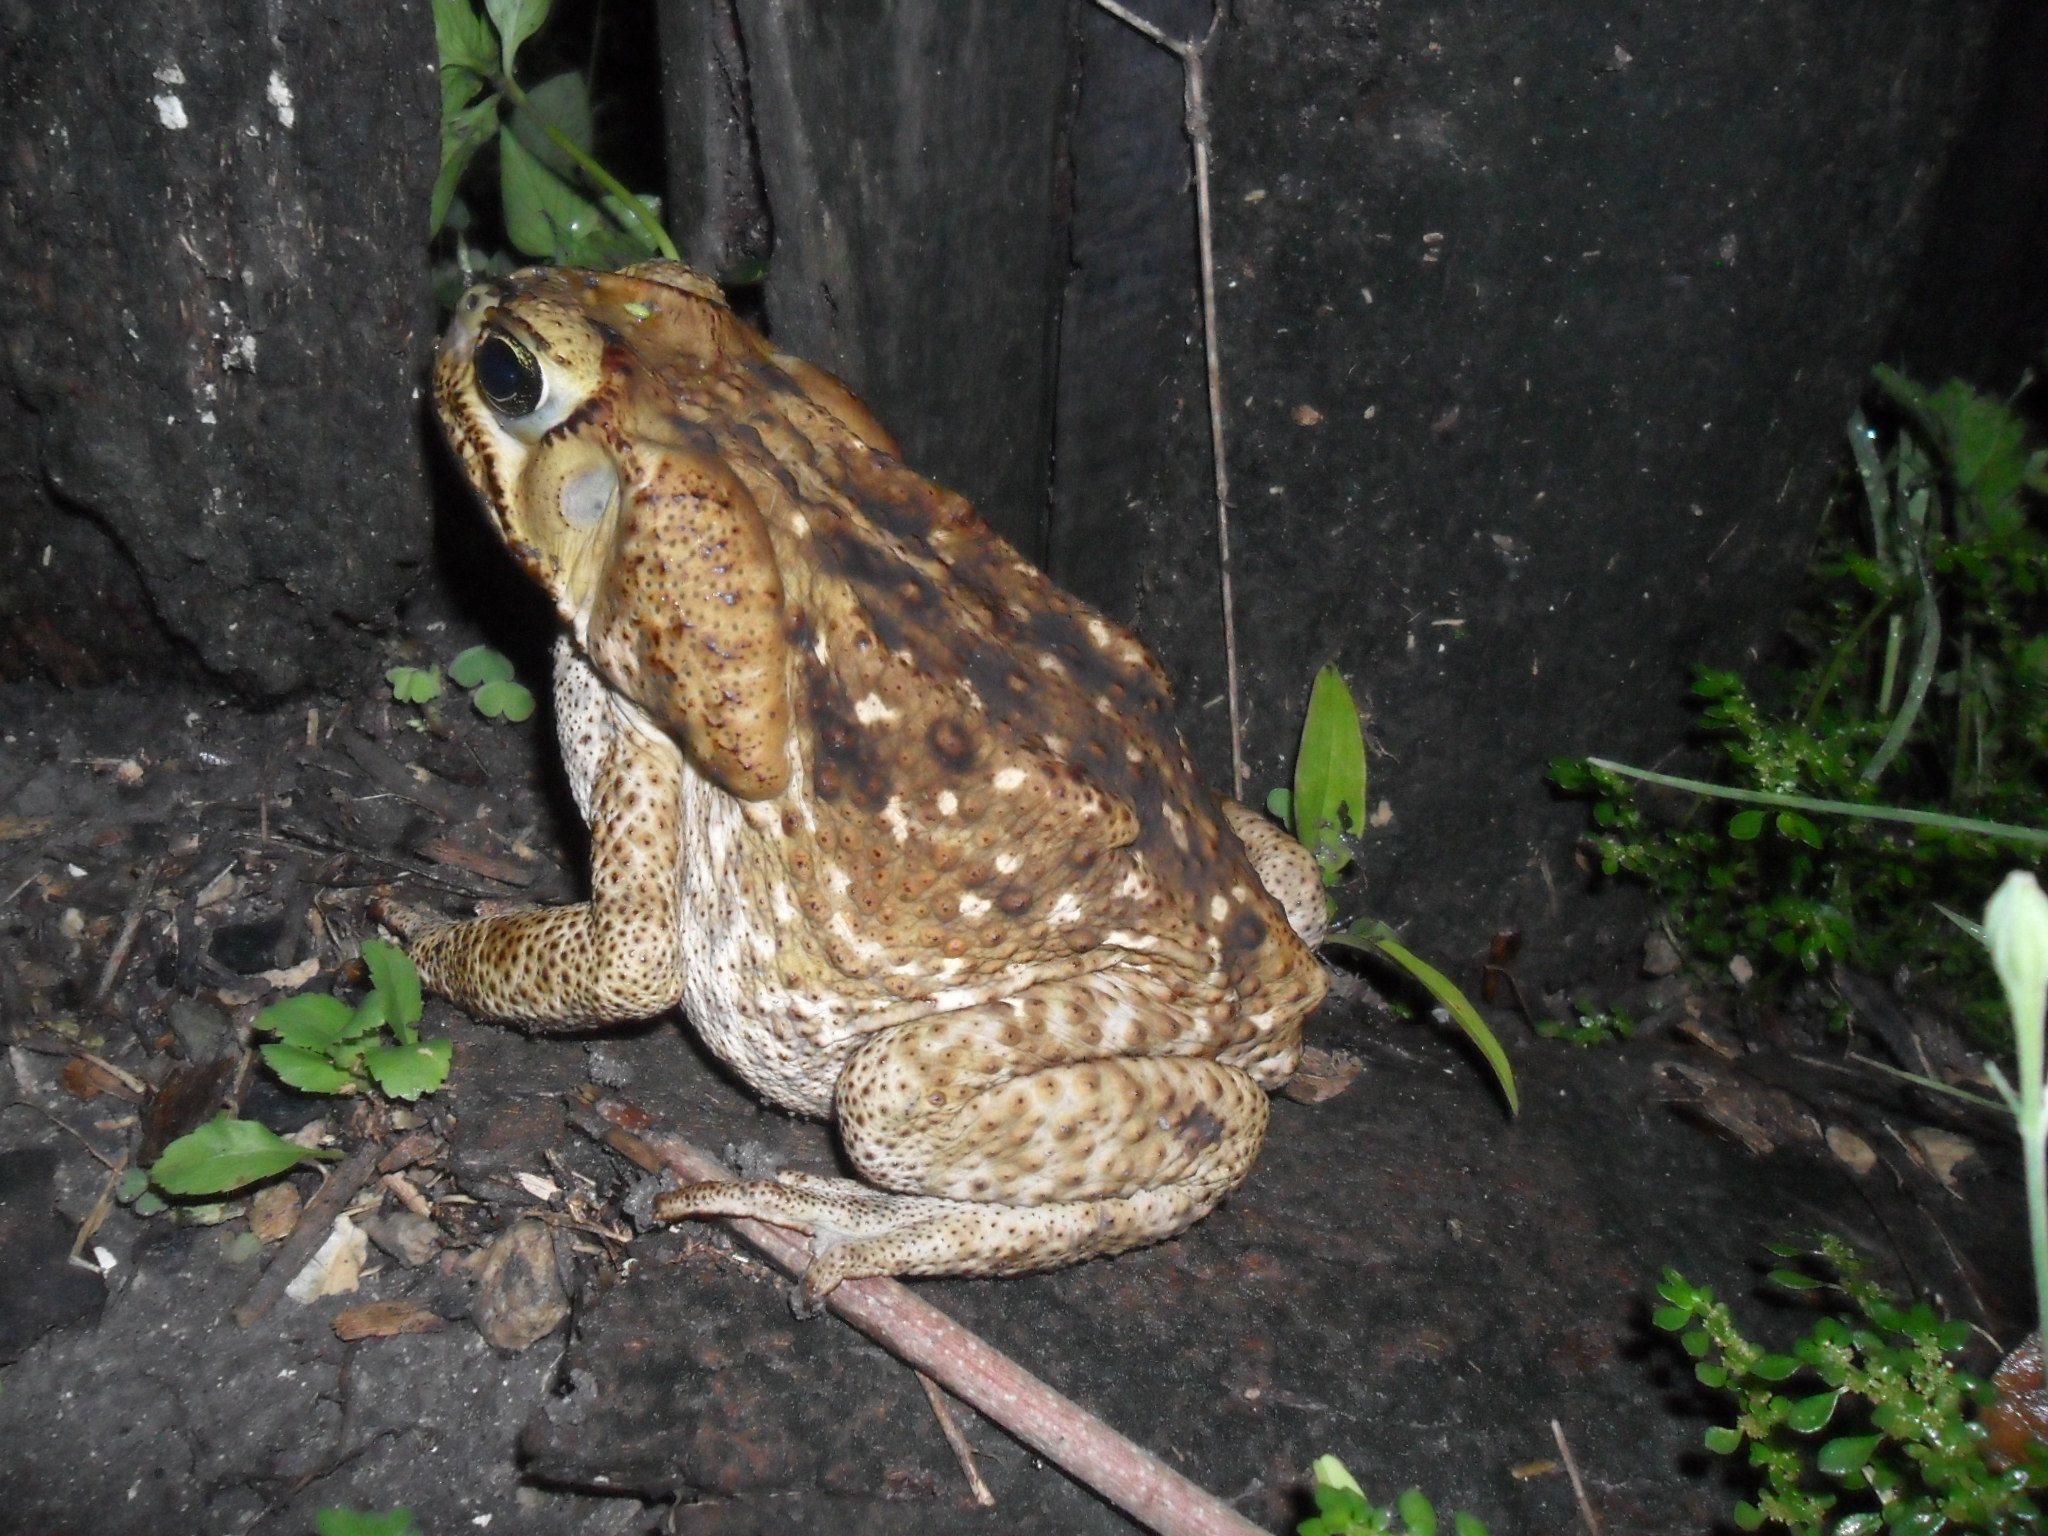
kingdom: Animalia
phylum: Chordata
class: Amphibia
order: Anura
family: Bufonidae
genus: Rhinella
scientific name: Rhinella horribilis
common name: Mesoamerican cane toad
